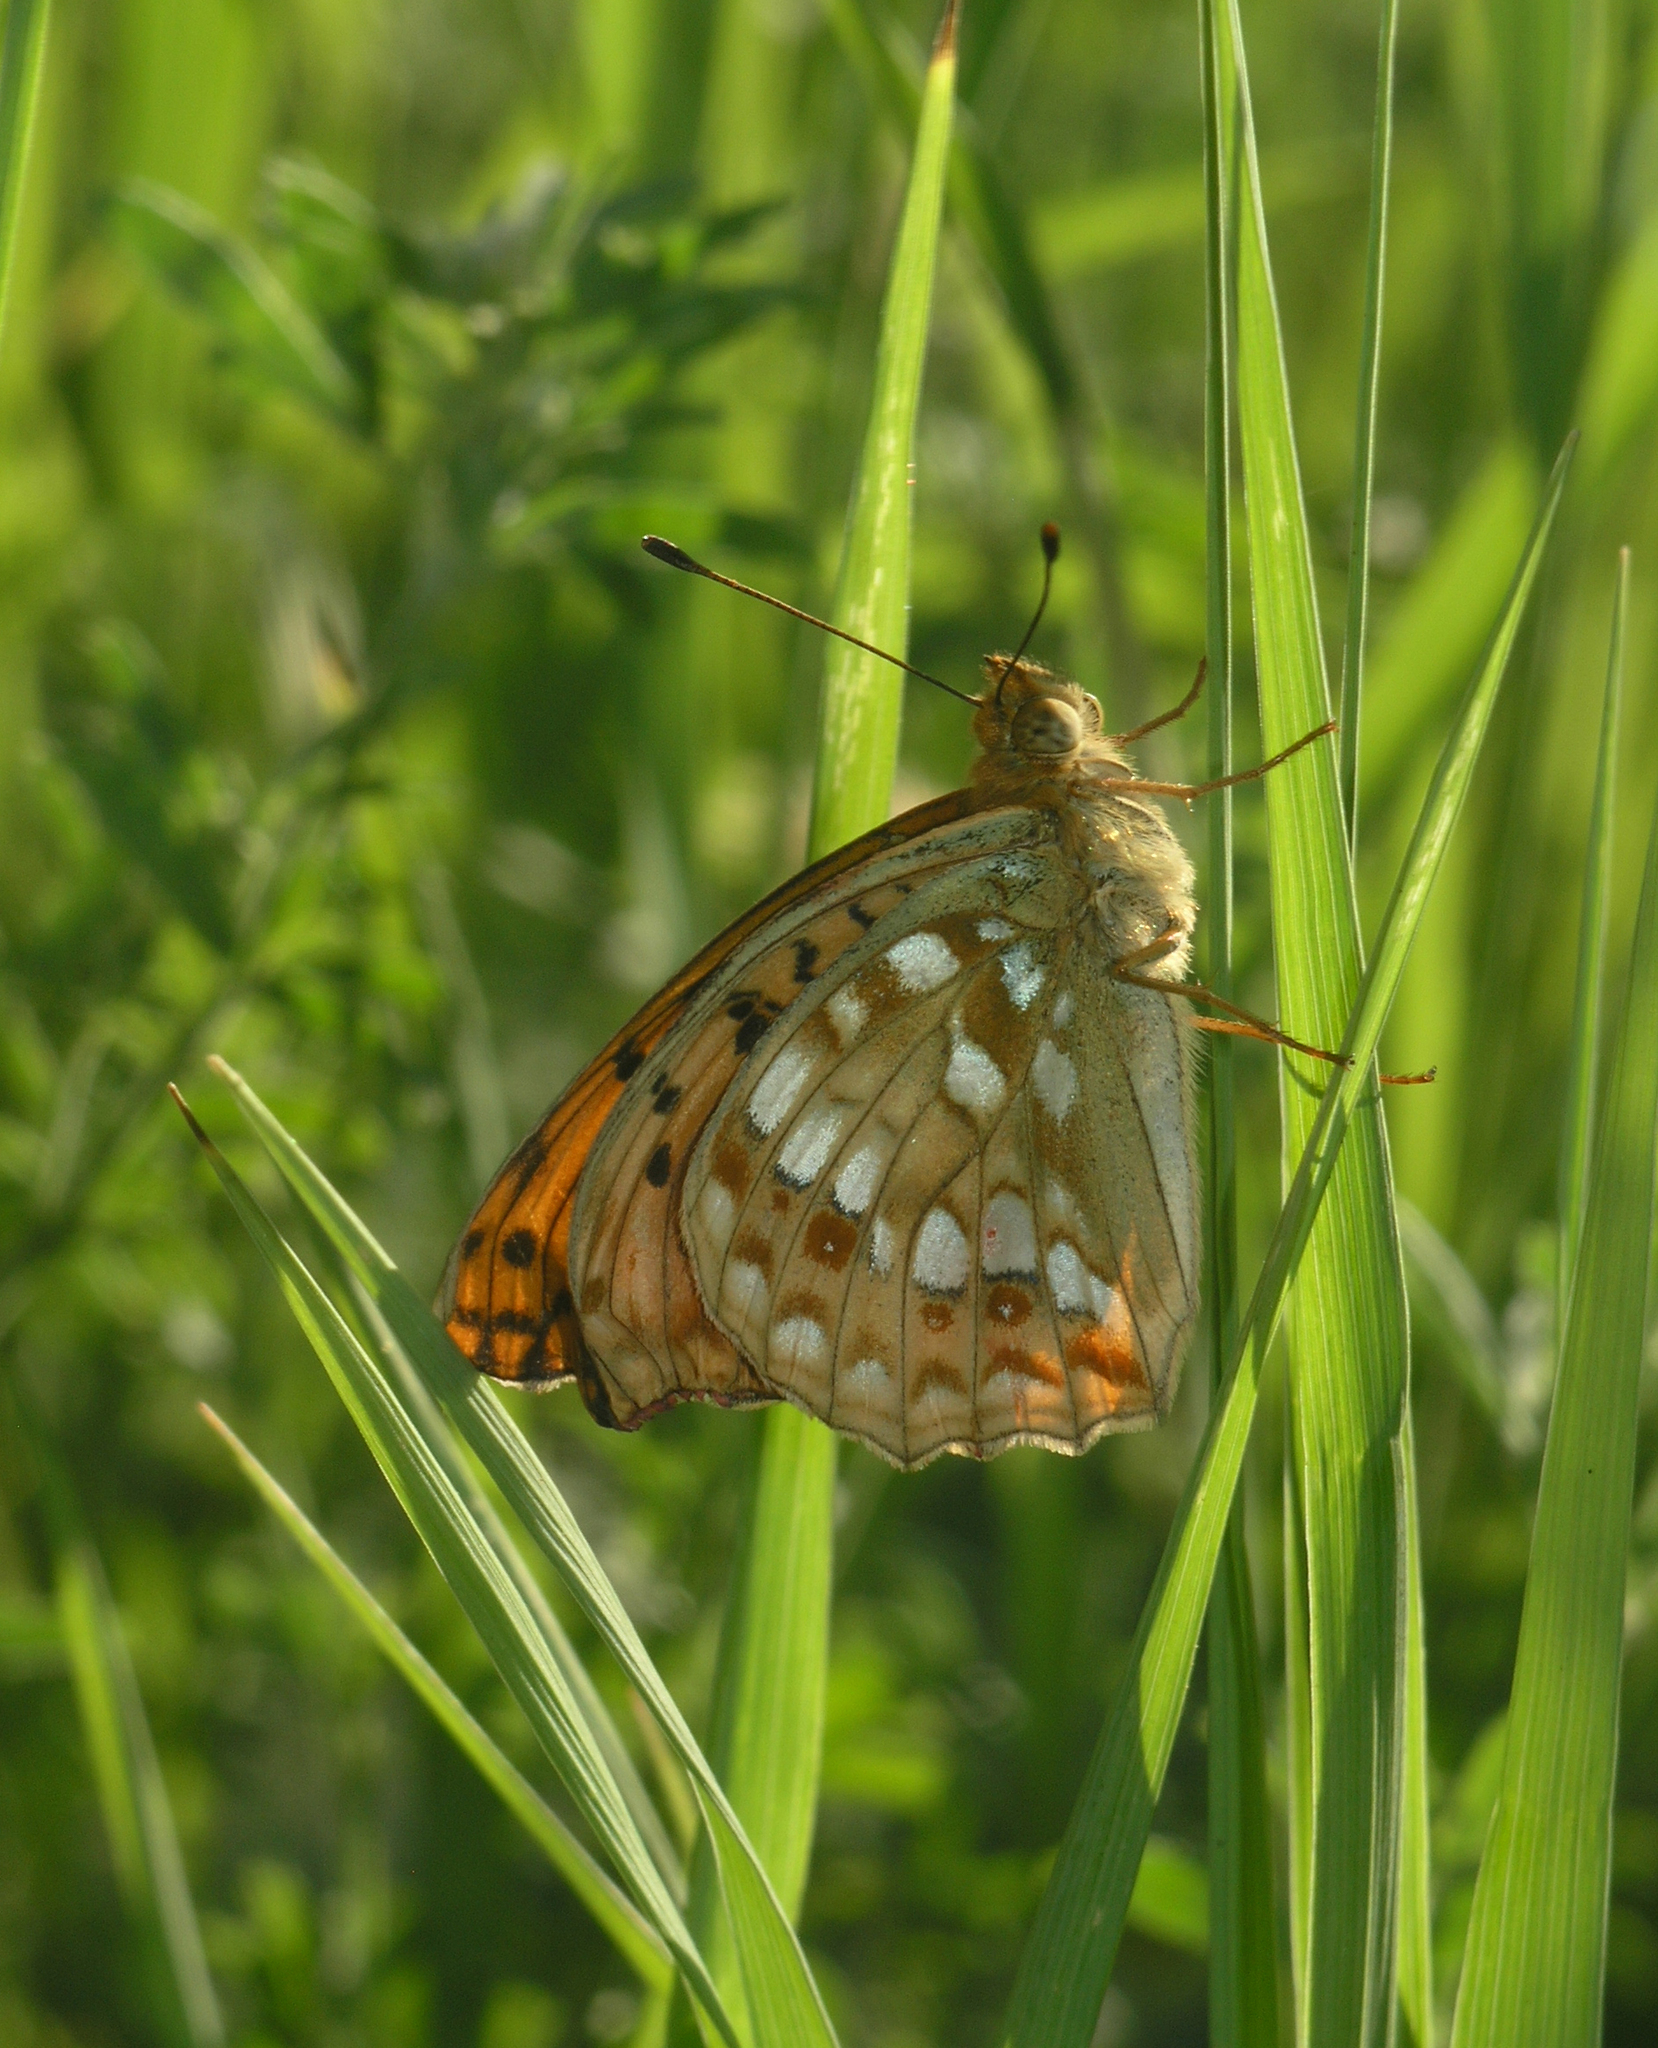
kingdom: Animalia
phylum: Arthropoda
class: Insecta
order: Lepidoptera
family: Nymphalidae
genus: Fabriciana
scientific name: Fabriciana adippe
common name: High brown fritillary
